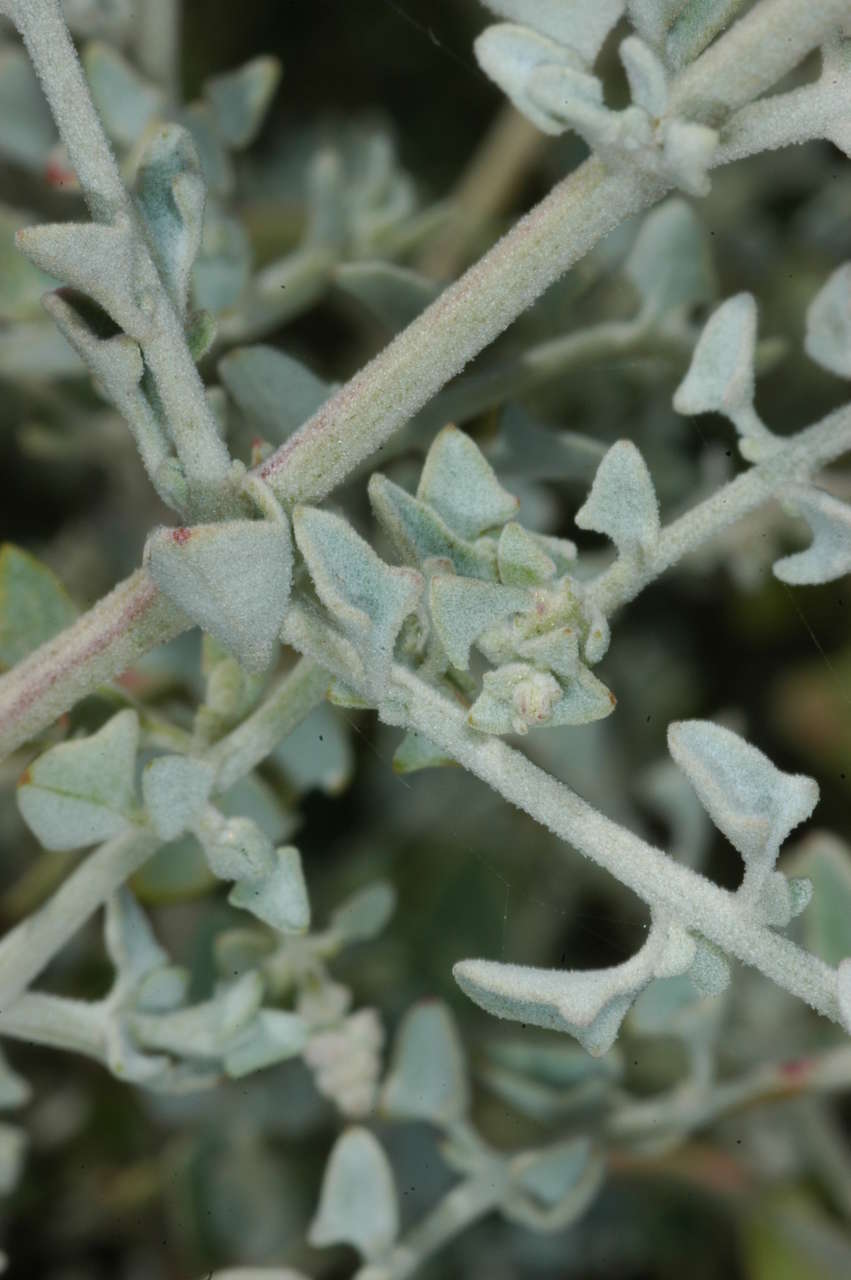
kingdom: Plantae
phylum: Tracheophyta
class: Magnoliopsida
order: Caryophyllales
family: Amaranthaceae
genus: Chenopodium
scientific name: Chenopodium curvispicatum
